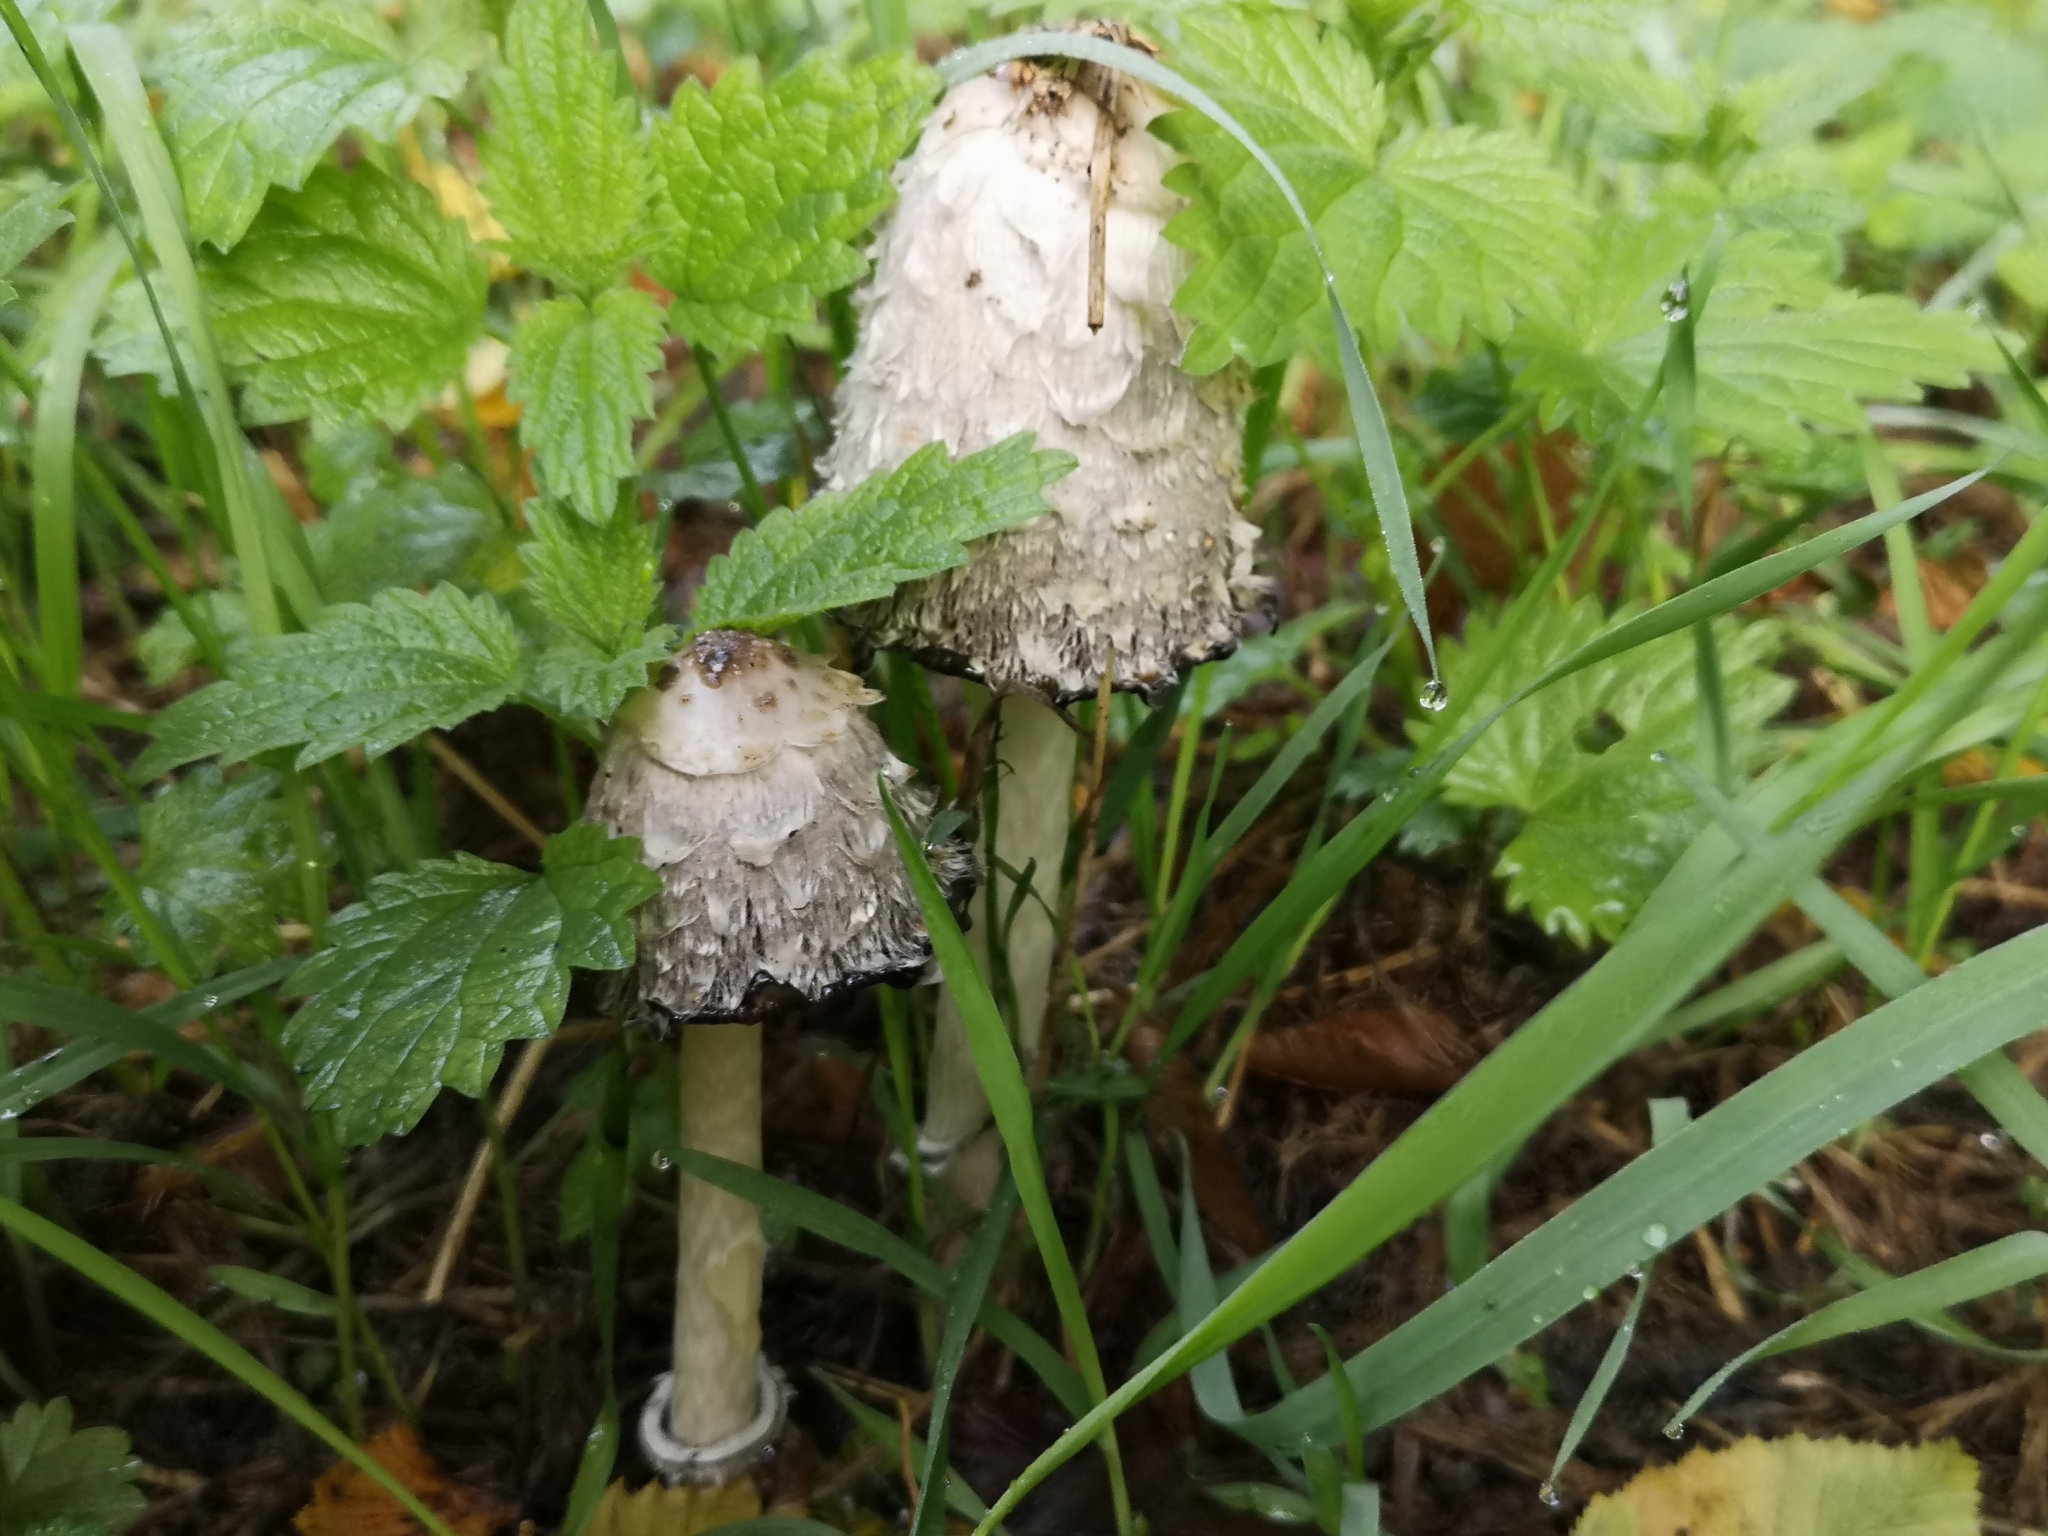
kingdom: Fungi
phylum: Basidiomycota
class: Agaricomycetes
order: Agaricales
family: Agaricaceae
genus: Coprinus
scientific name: Coprinus comatus
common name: Lawyer's wig
